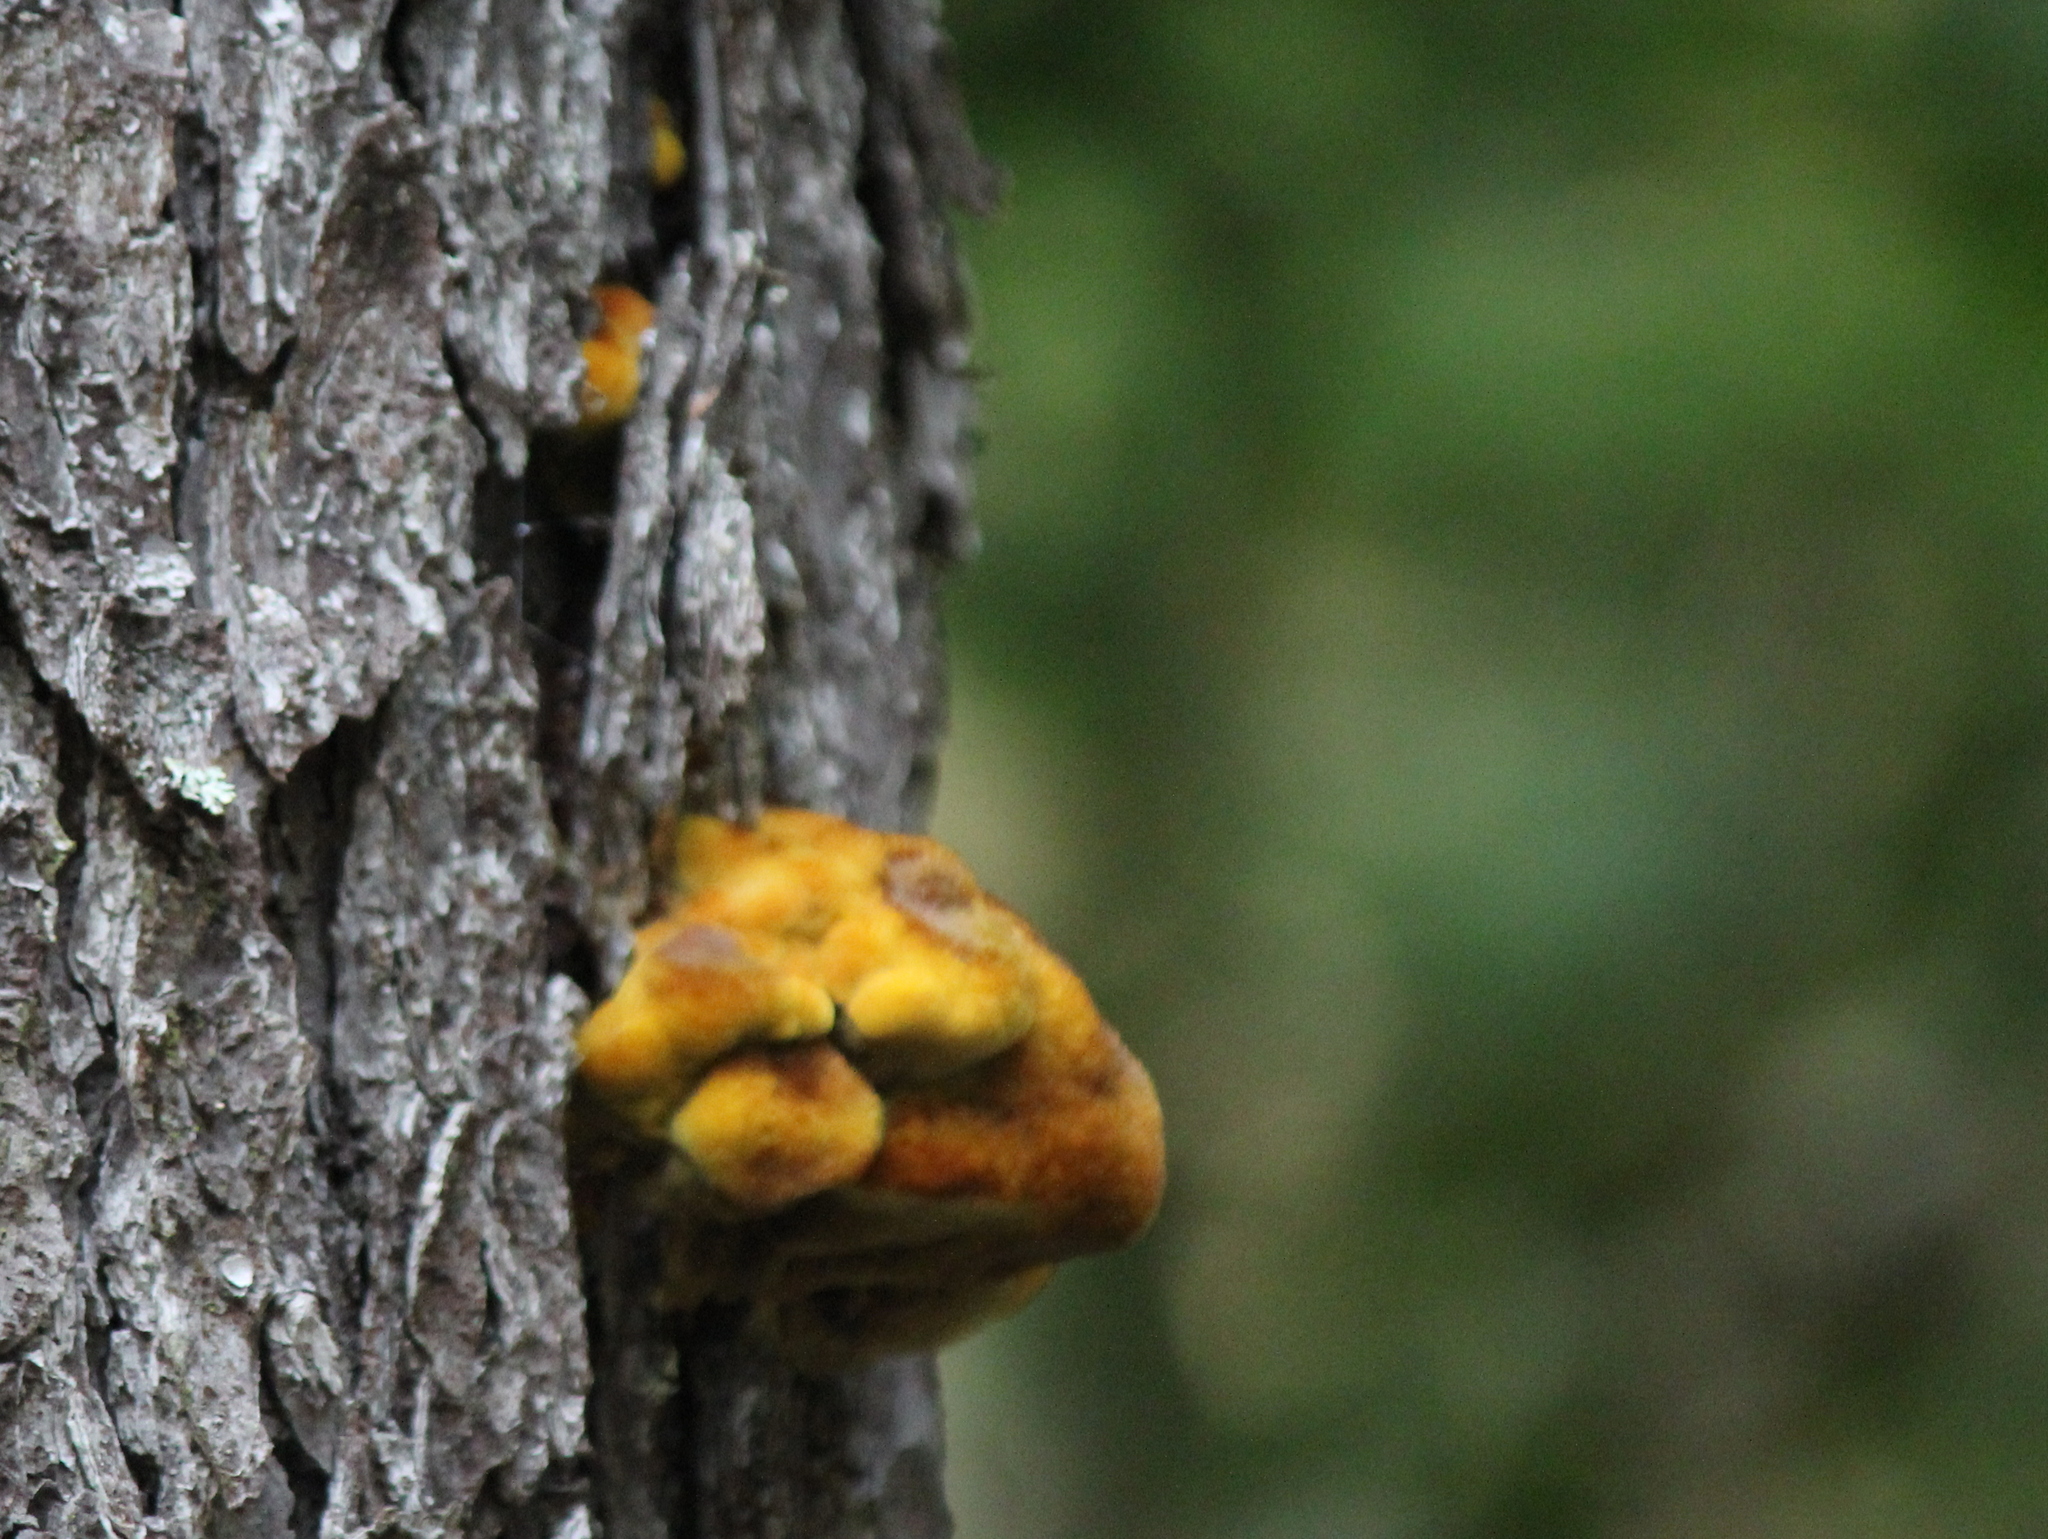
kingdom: Fungi
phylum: Basidiomycota
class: Agaricomycetes
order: Polyporales
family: Laetiporaceae
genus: Phaeolus
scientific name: Phaeolus schweinitzii
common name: Dyer's mazegill
